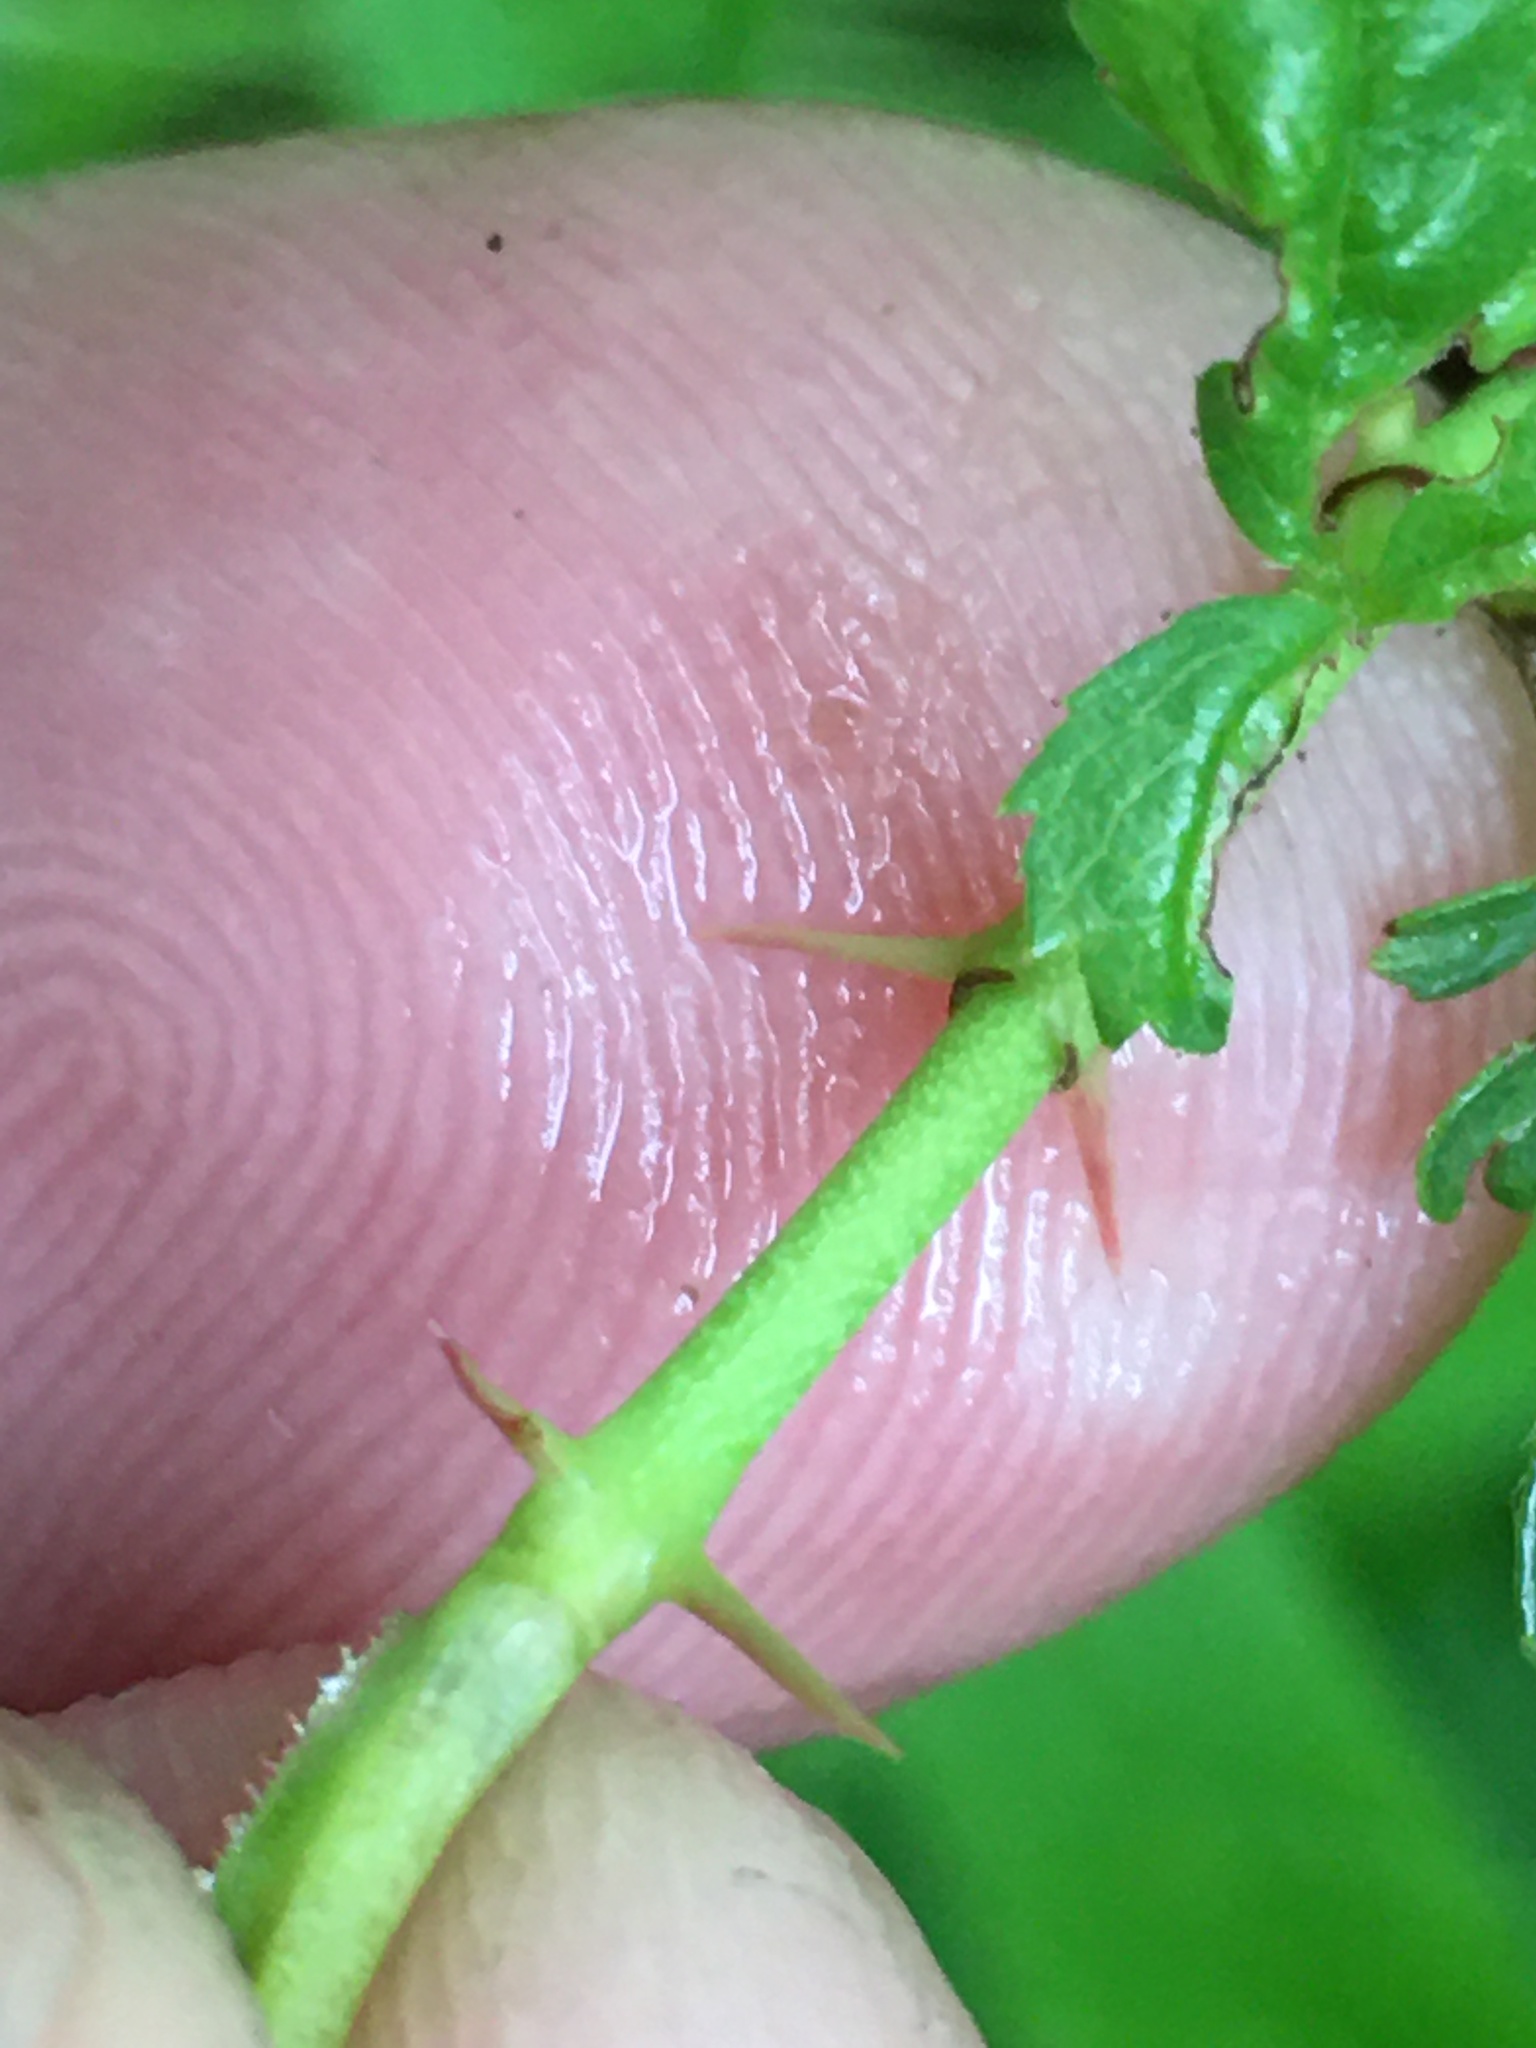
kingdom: Plantae
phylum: Tracheophyta
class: Magnoliopsida
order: Rosales
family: Rosaceae
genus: Rosa
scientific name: Rosa carolina
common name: Pasture rose
